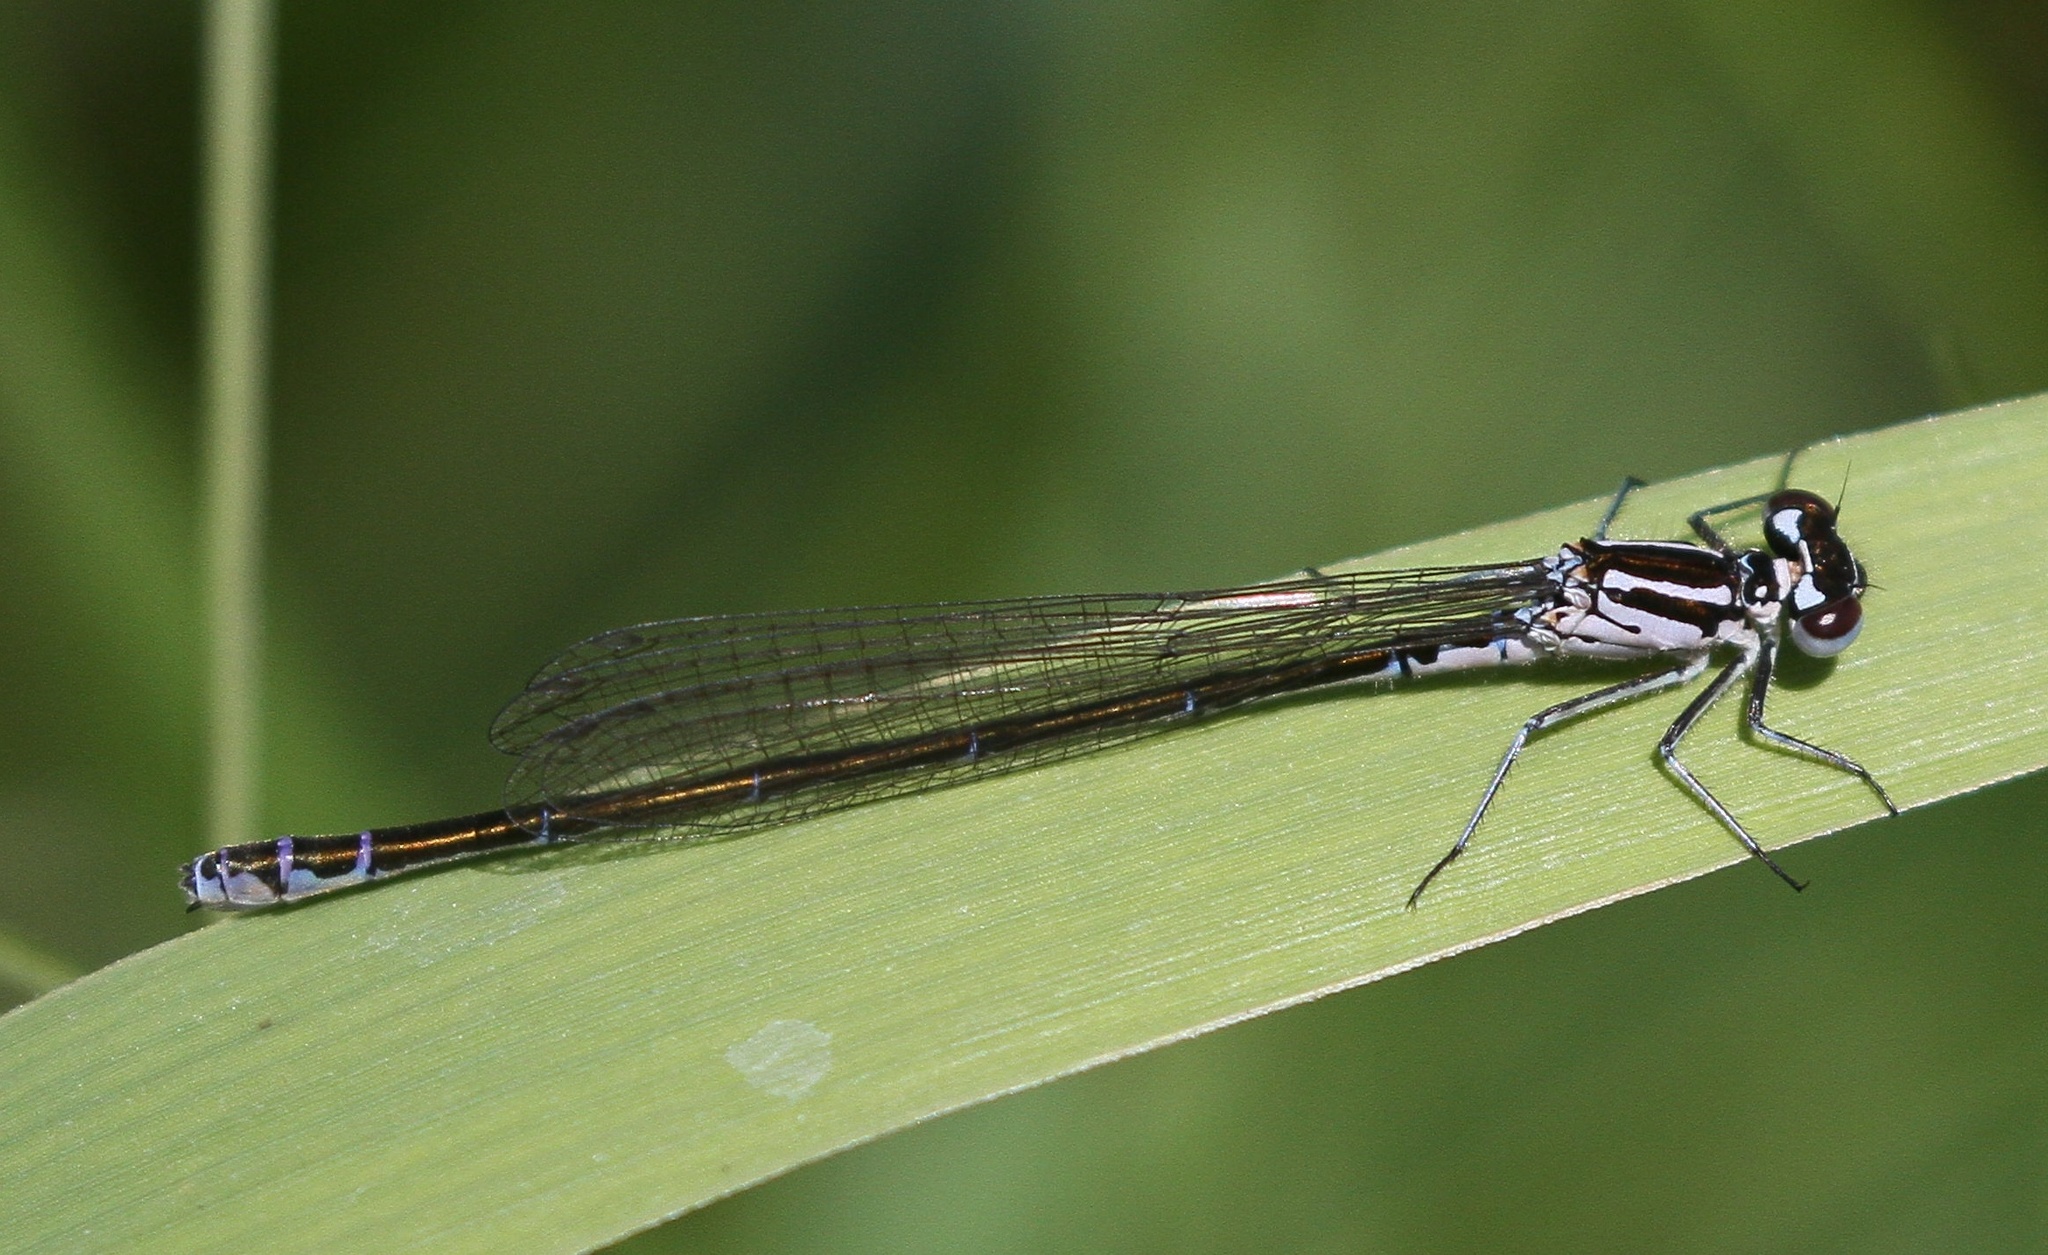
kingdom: Animalia
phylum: Arthropoda
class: Insecta
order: Odonata
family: Coenagrionidae
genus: Coenagrion
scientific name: Coenagrion pulchellum
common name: Variable bluet
